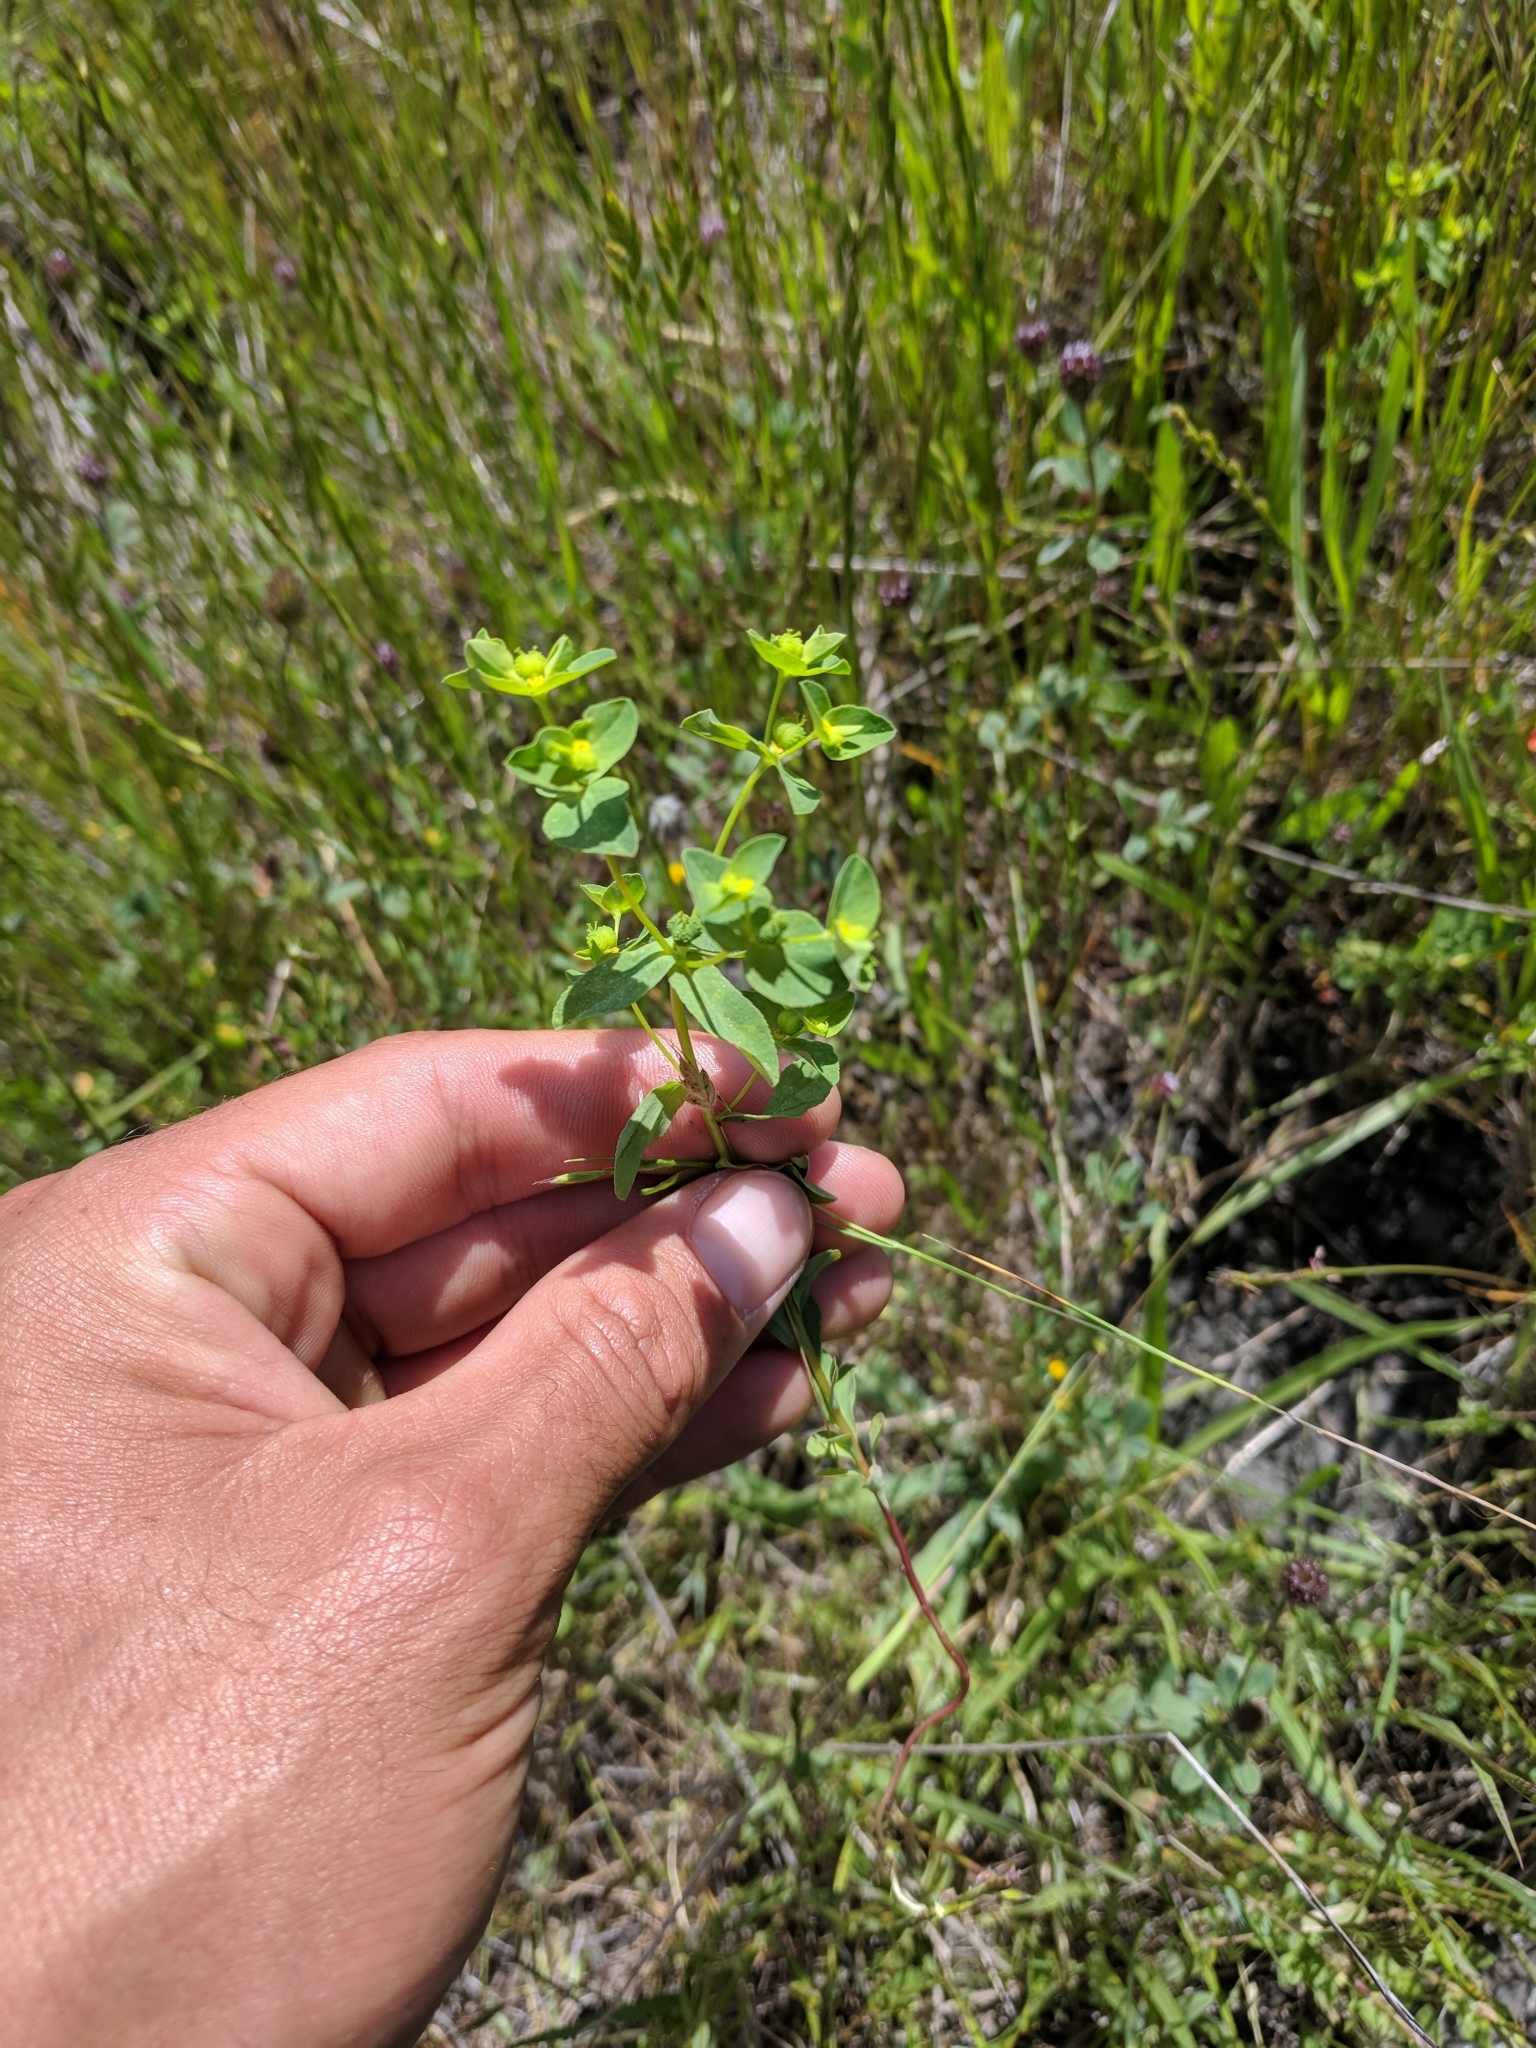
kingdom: Plantae
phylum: Tracheophyta
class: Magnoliopsida
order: Malpighiales
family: Euphorbiaceae
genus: Euphorbia
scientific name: Euphorbia spathulata
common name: Blunt spurge
